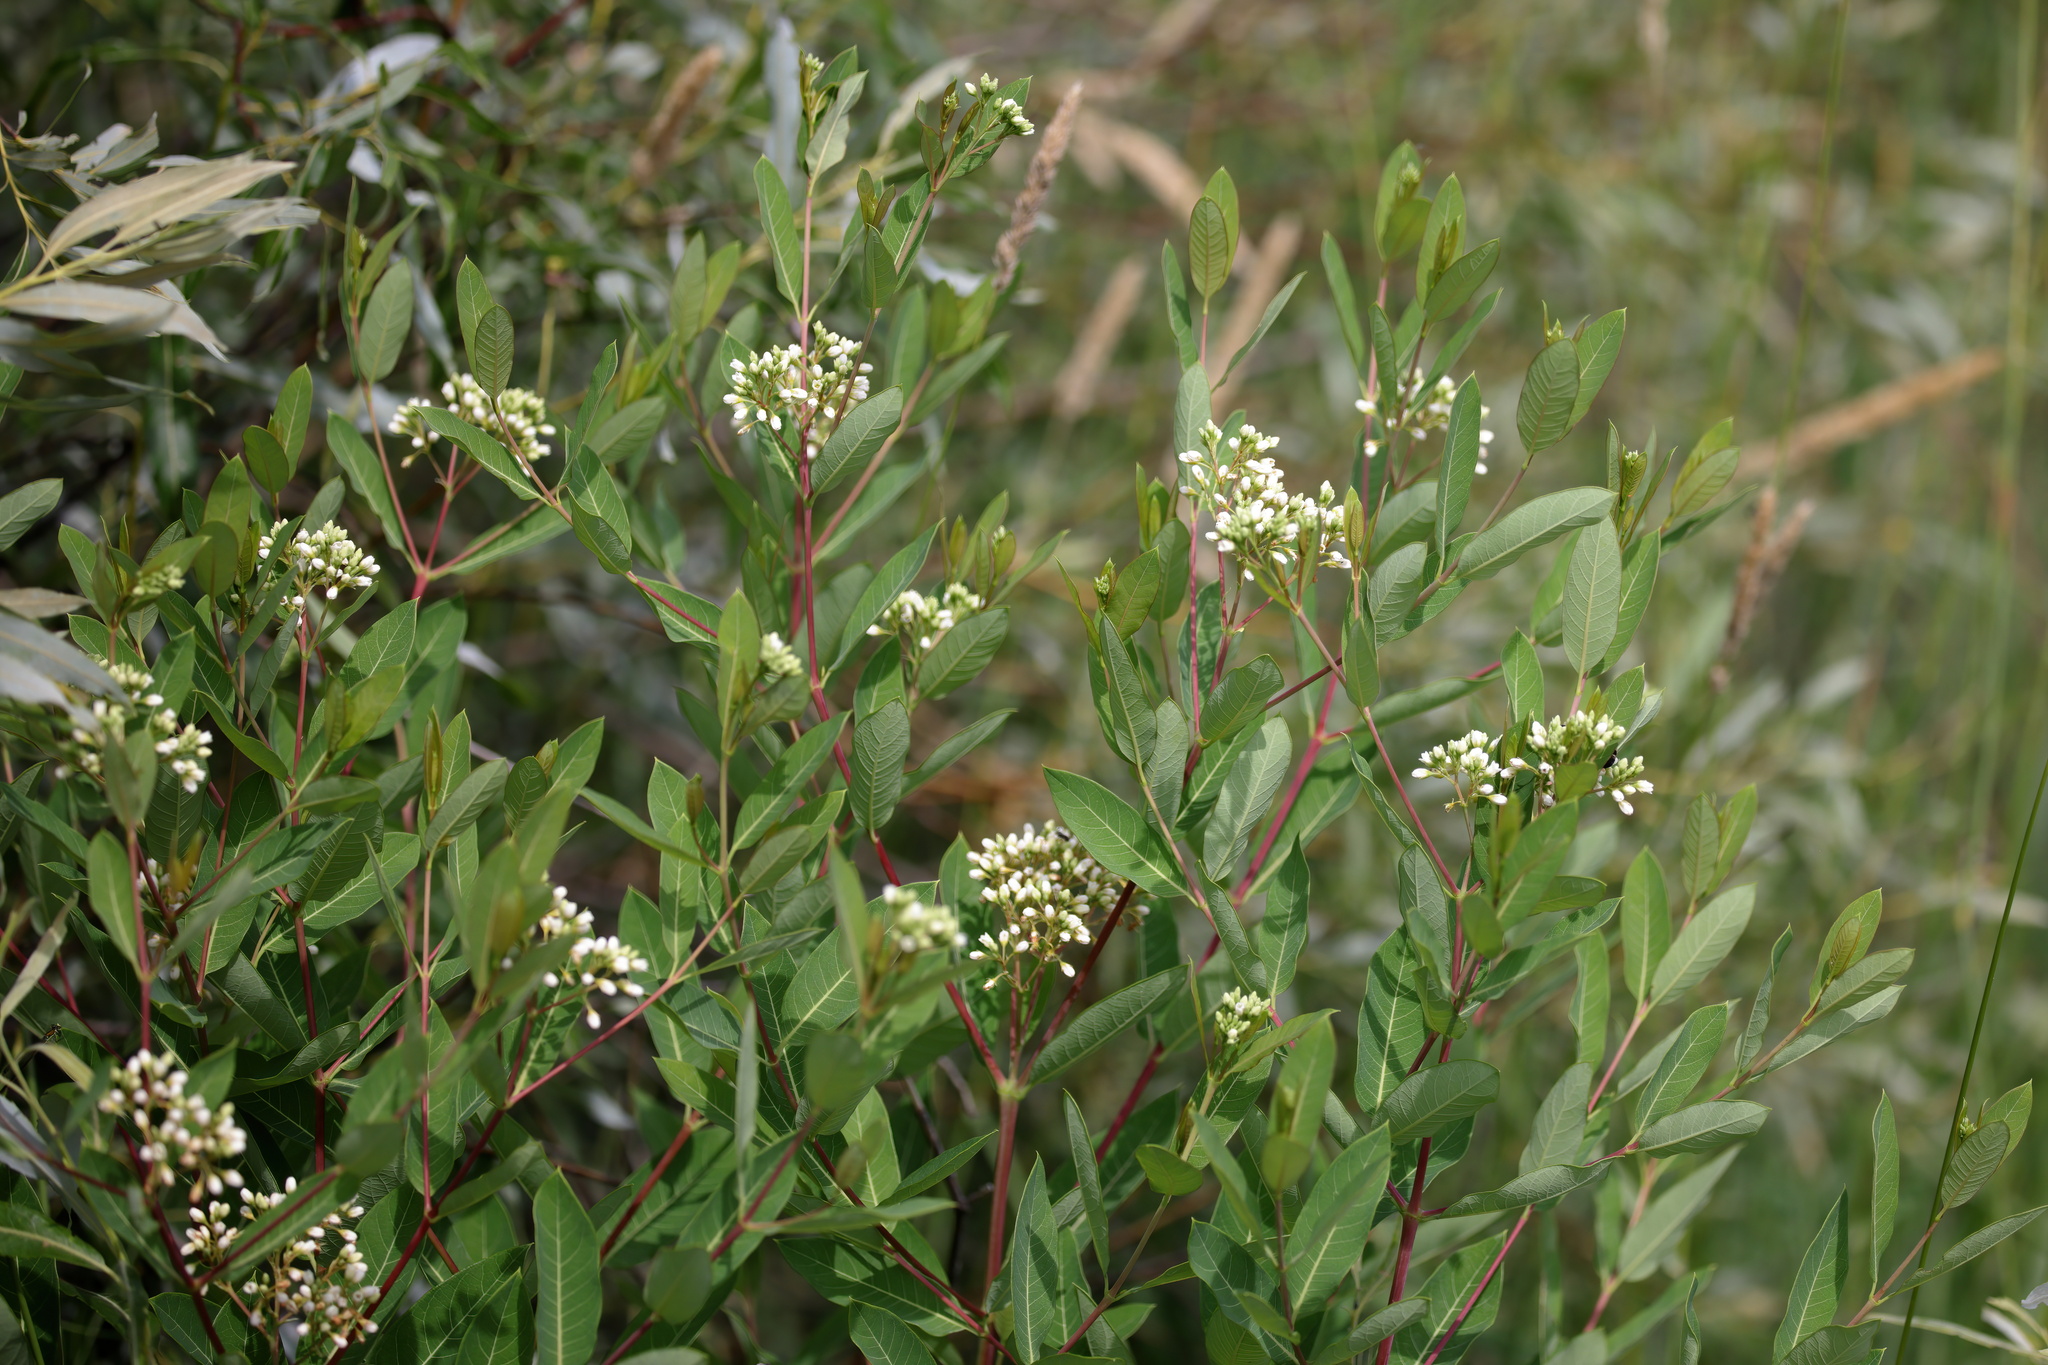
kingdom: Plantae
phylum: Tracheophyta
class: Magnoliopsida
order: Gentianales
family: Apocynaceae
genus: Apocynum
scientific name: Apocynum cannabinum
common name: Hemp dogbane
